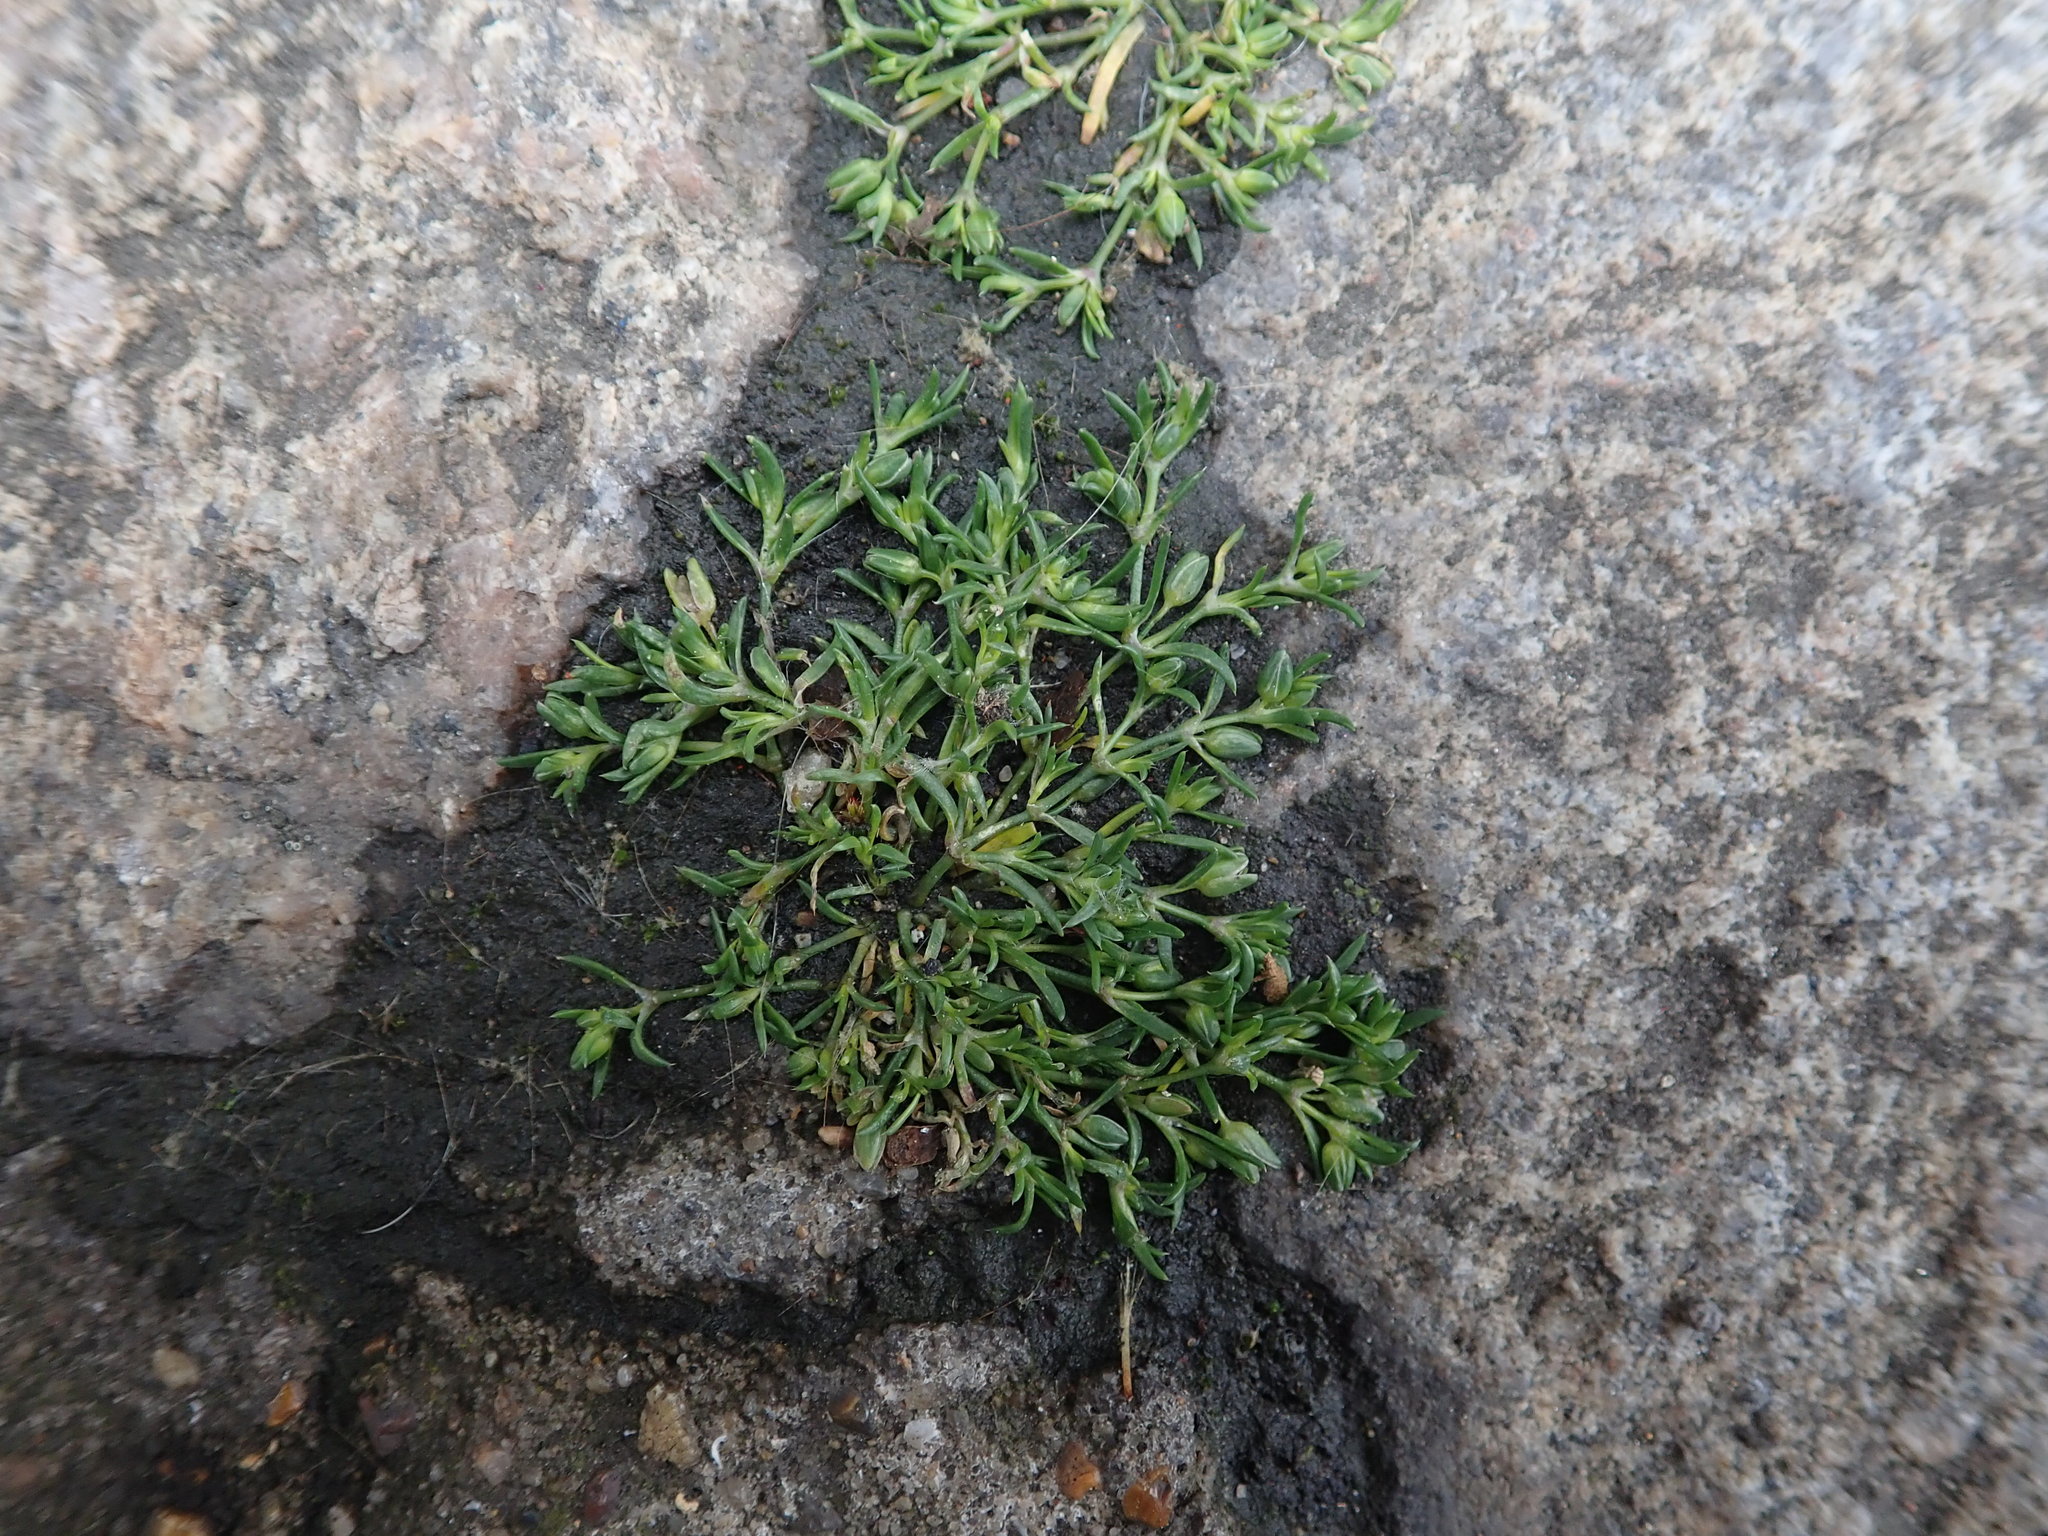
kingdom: Plantae
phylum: Tracheophyta
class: Magnoliopsida
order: Caryophyllales
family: Caryophyllaceae
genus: Sagina
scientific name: Sagina procumbens
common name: Procumbent pearlwort
